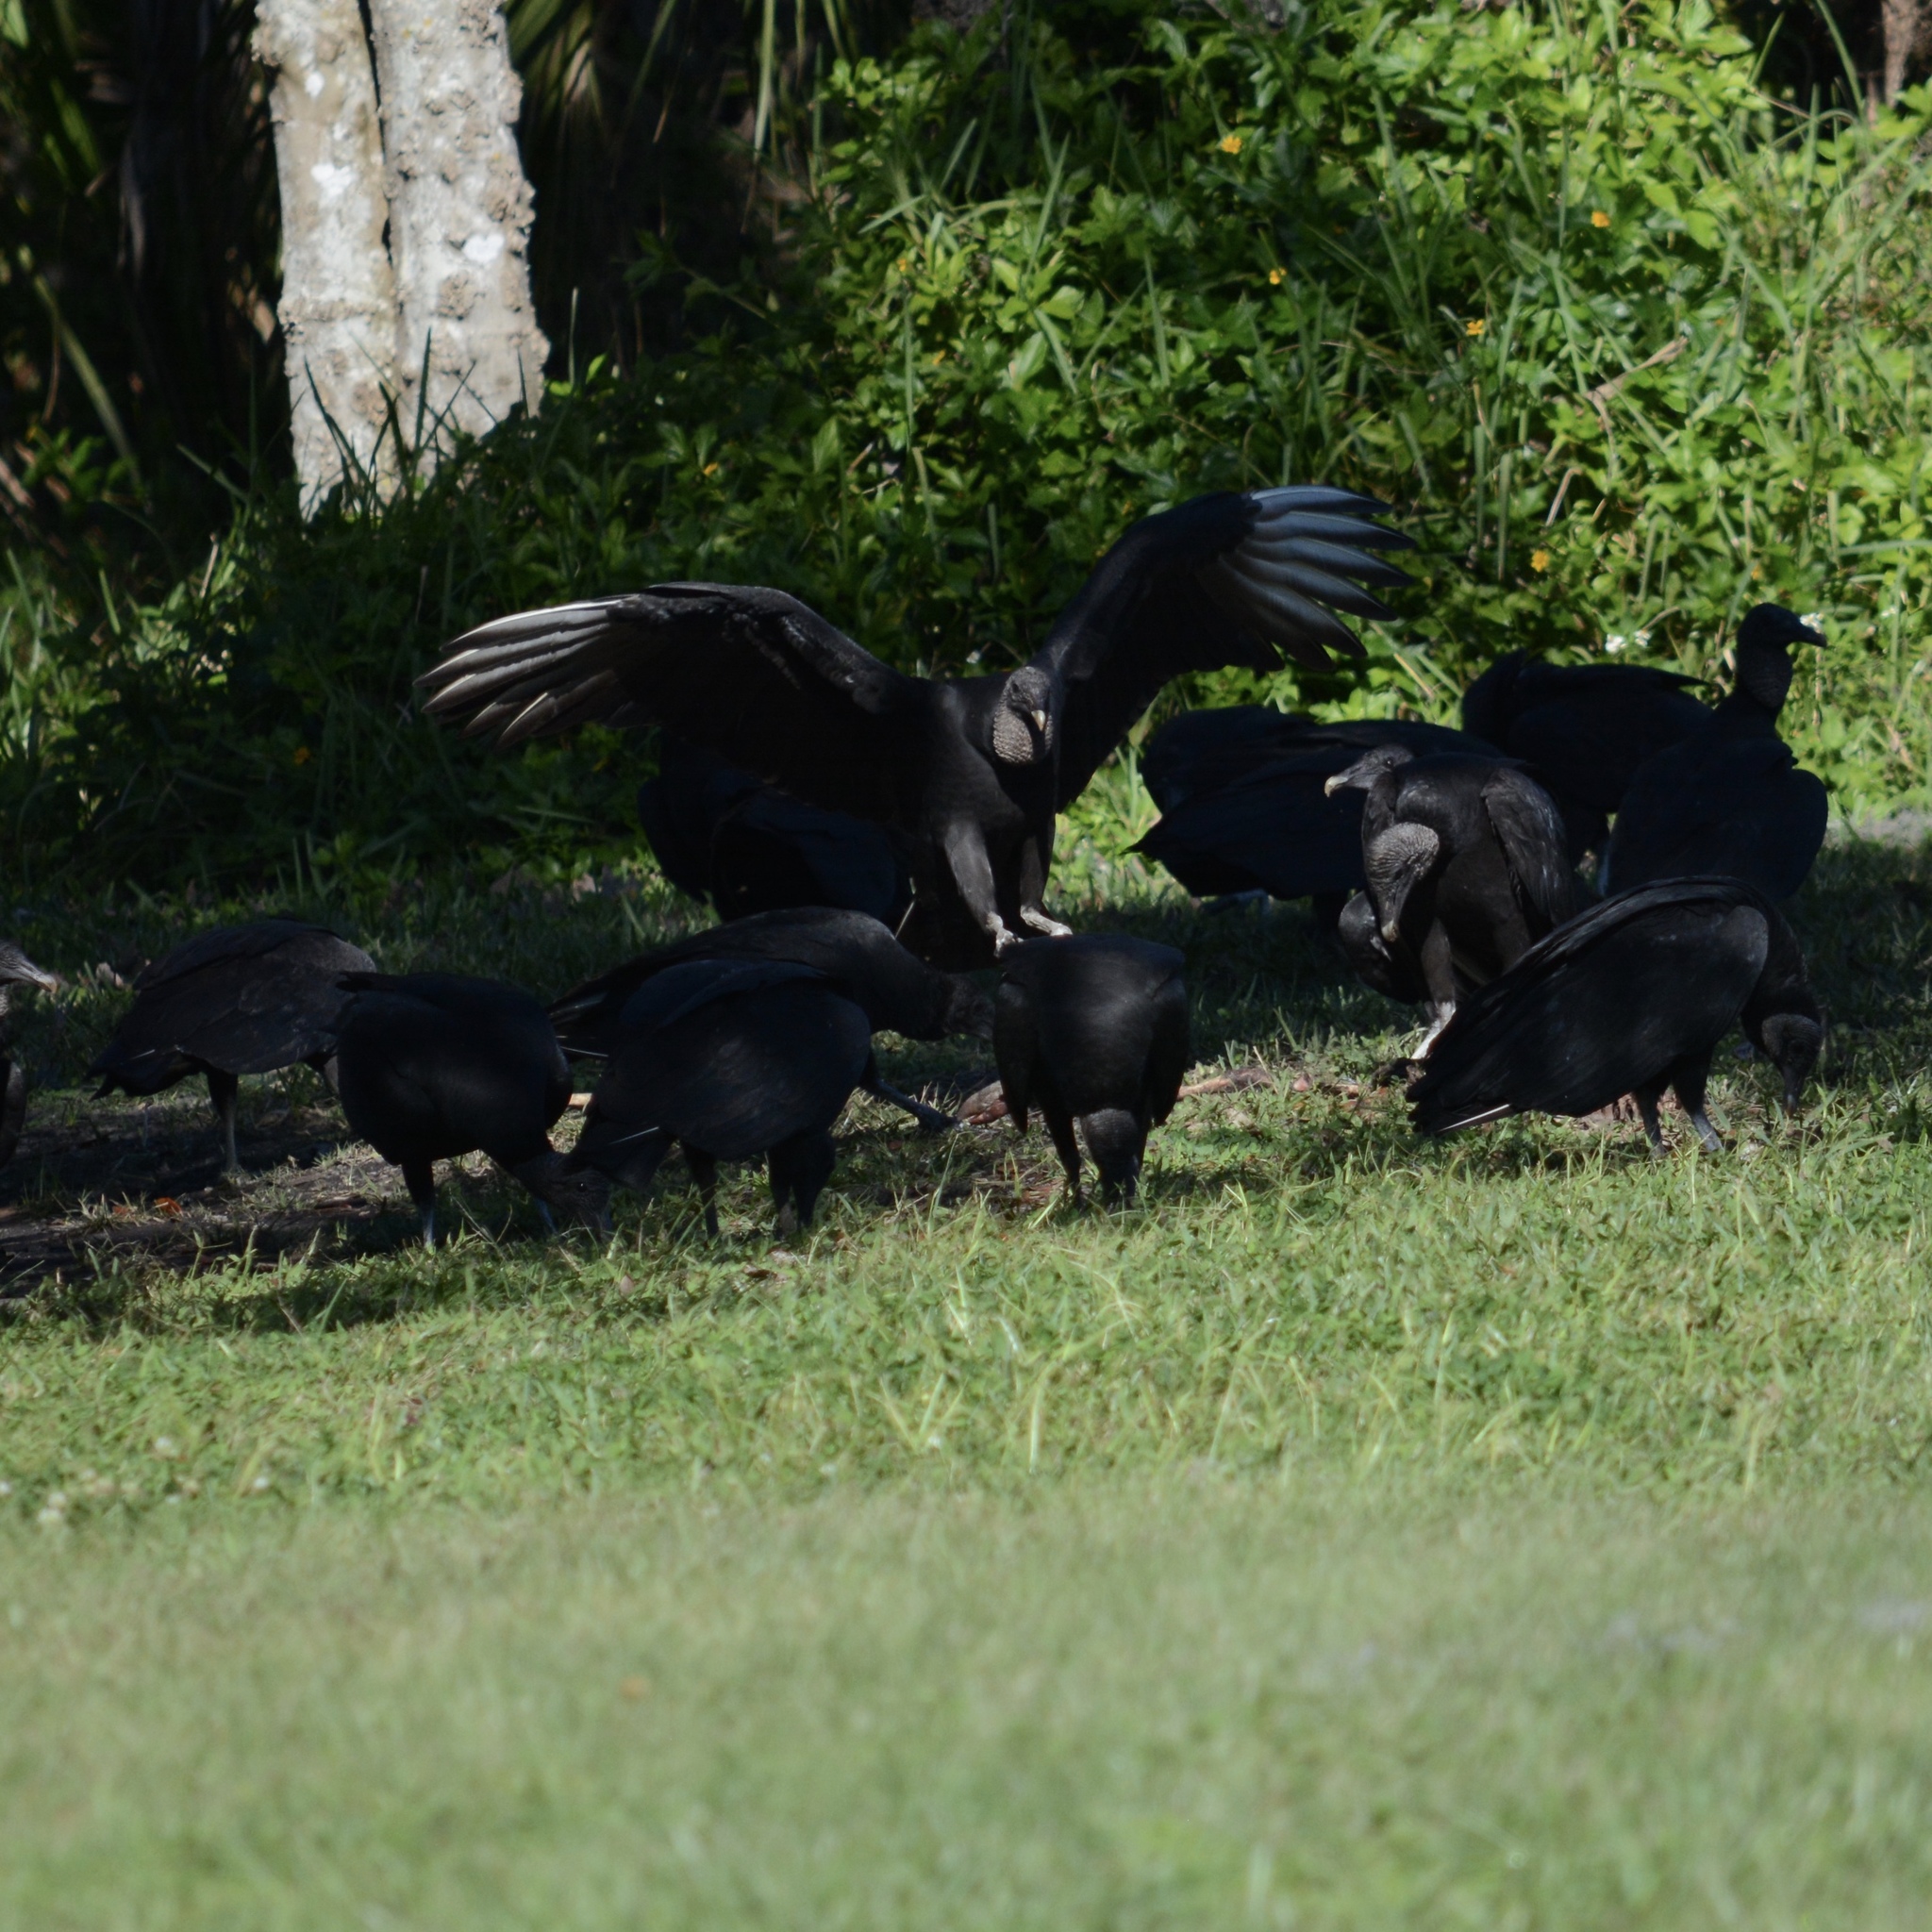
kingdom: Animalia
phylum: Chordata
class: Aves
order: Accipitriformes
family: Cathartidae
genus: Coragyps
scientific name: Coragyps atratus
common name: Black vulture
